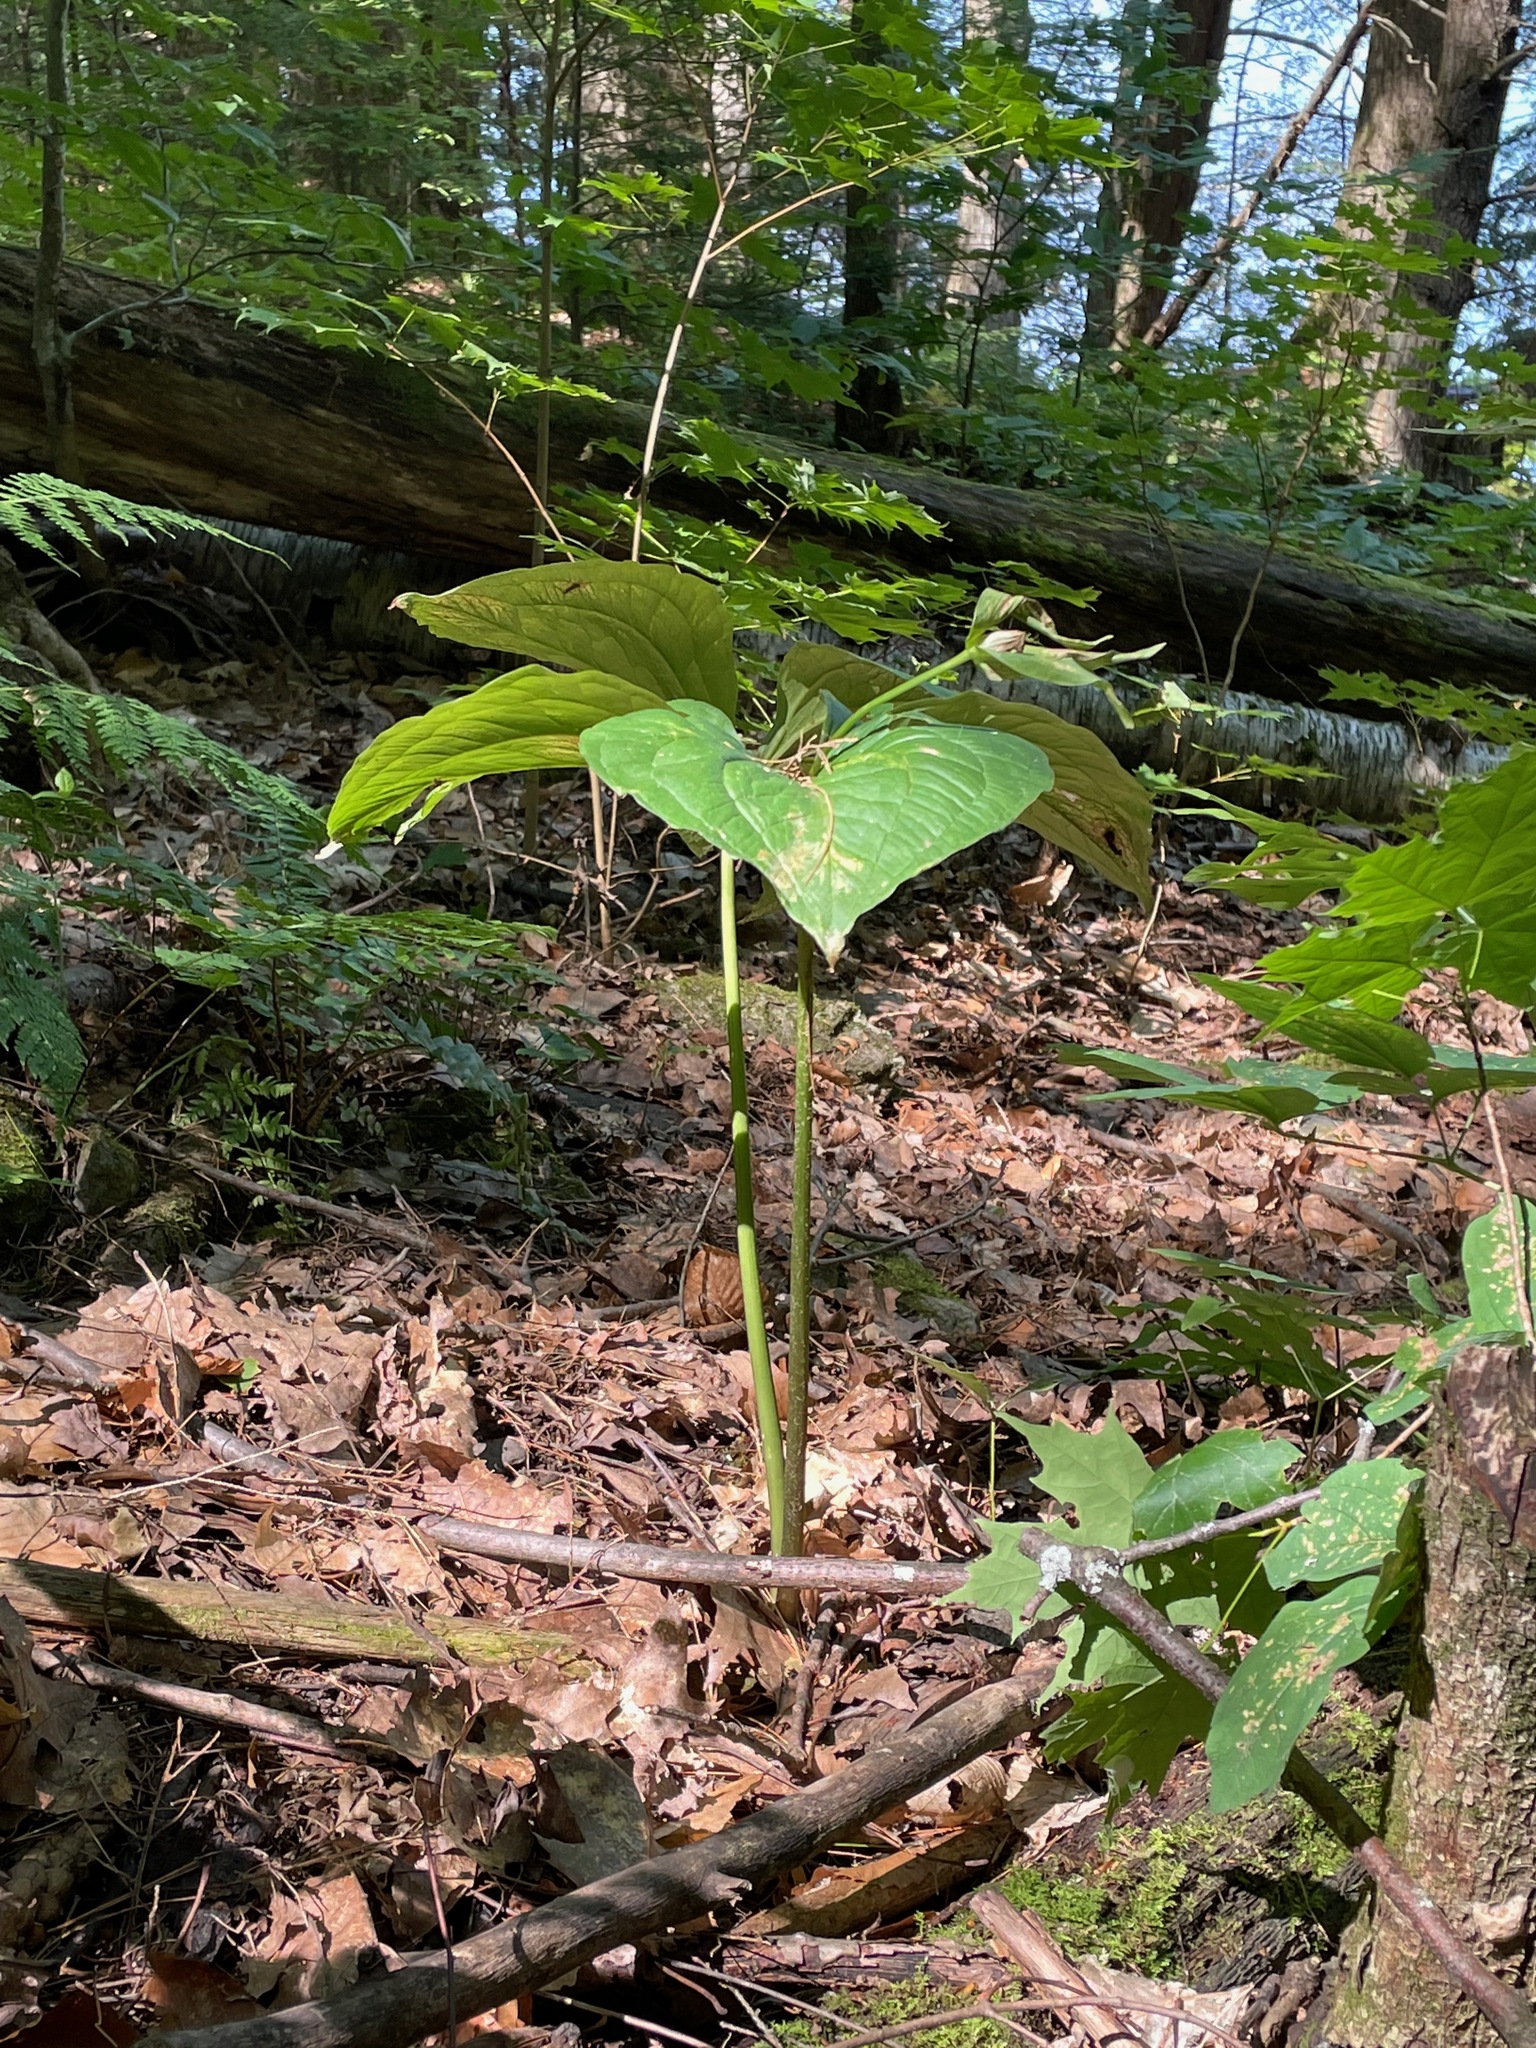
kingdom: Plantae
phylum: Tracheophyta
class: Liliopsida
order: Liliales
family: Melanthiaceae
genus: Trillium
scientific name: Trillium grandiflorum
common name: Great white trillium
